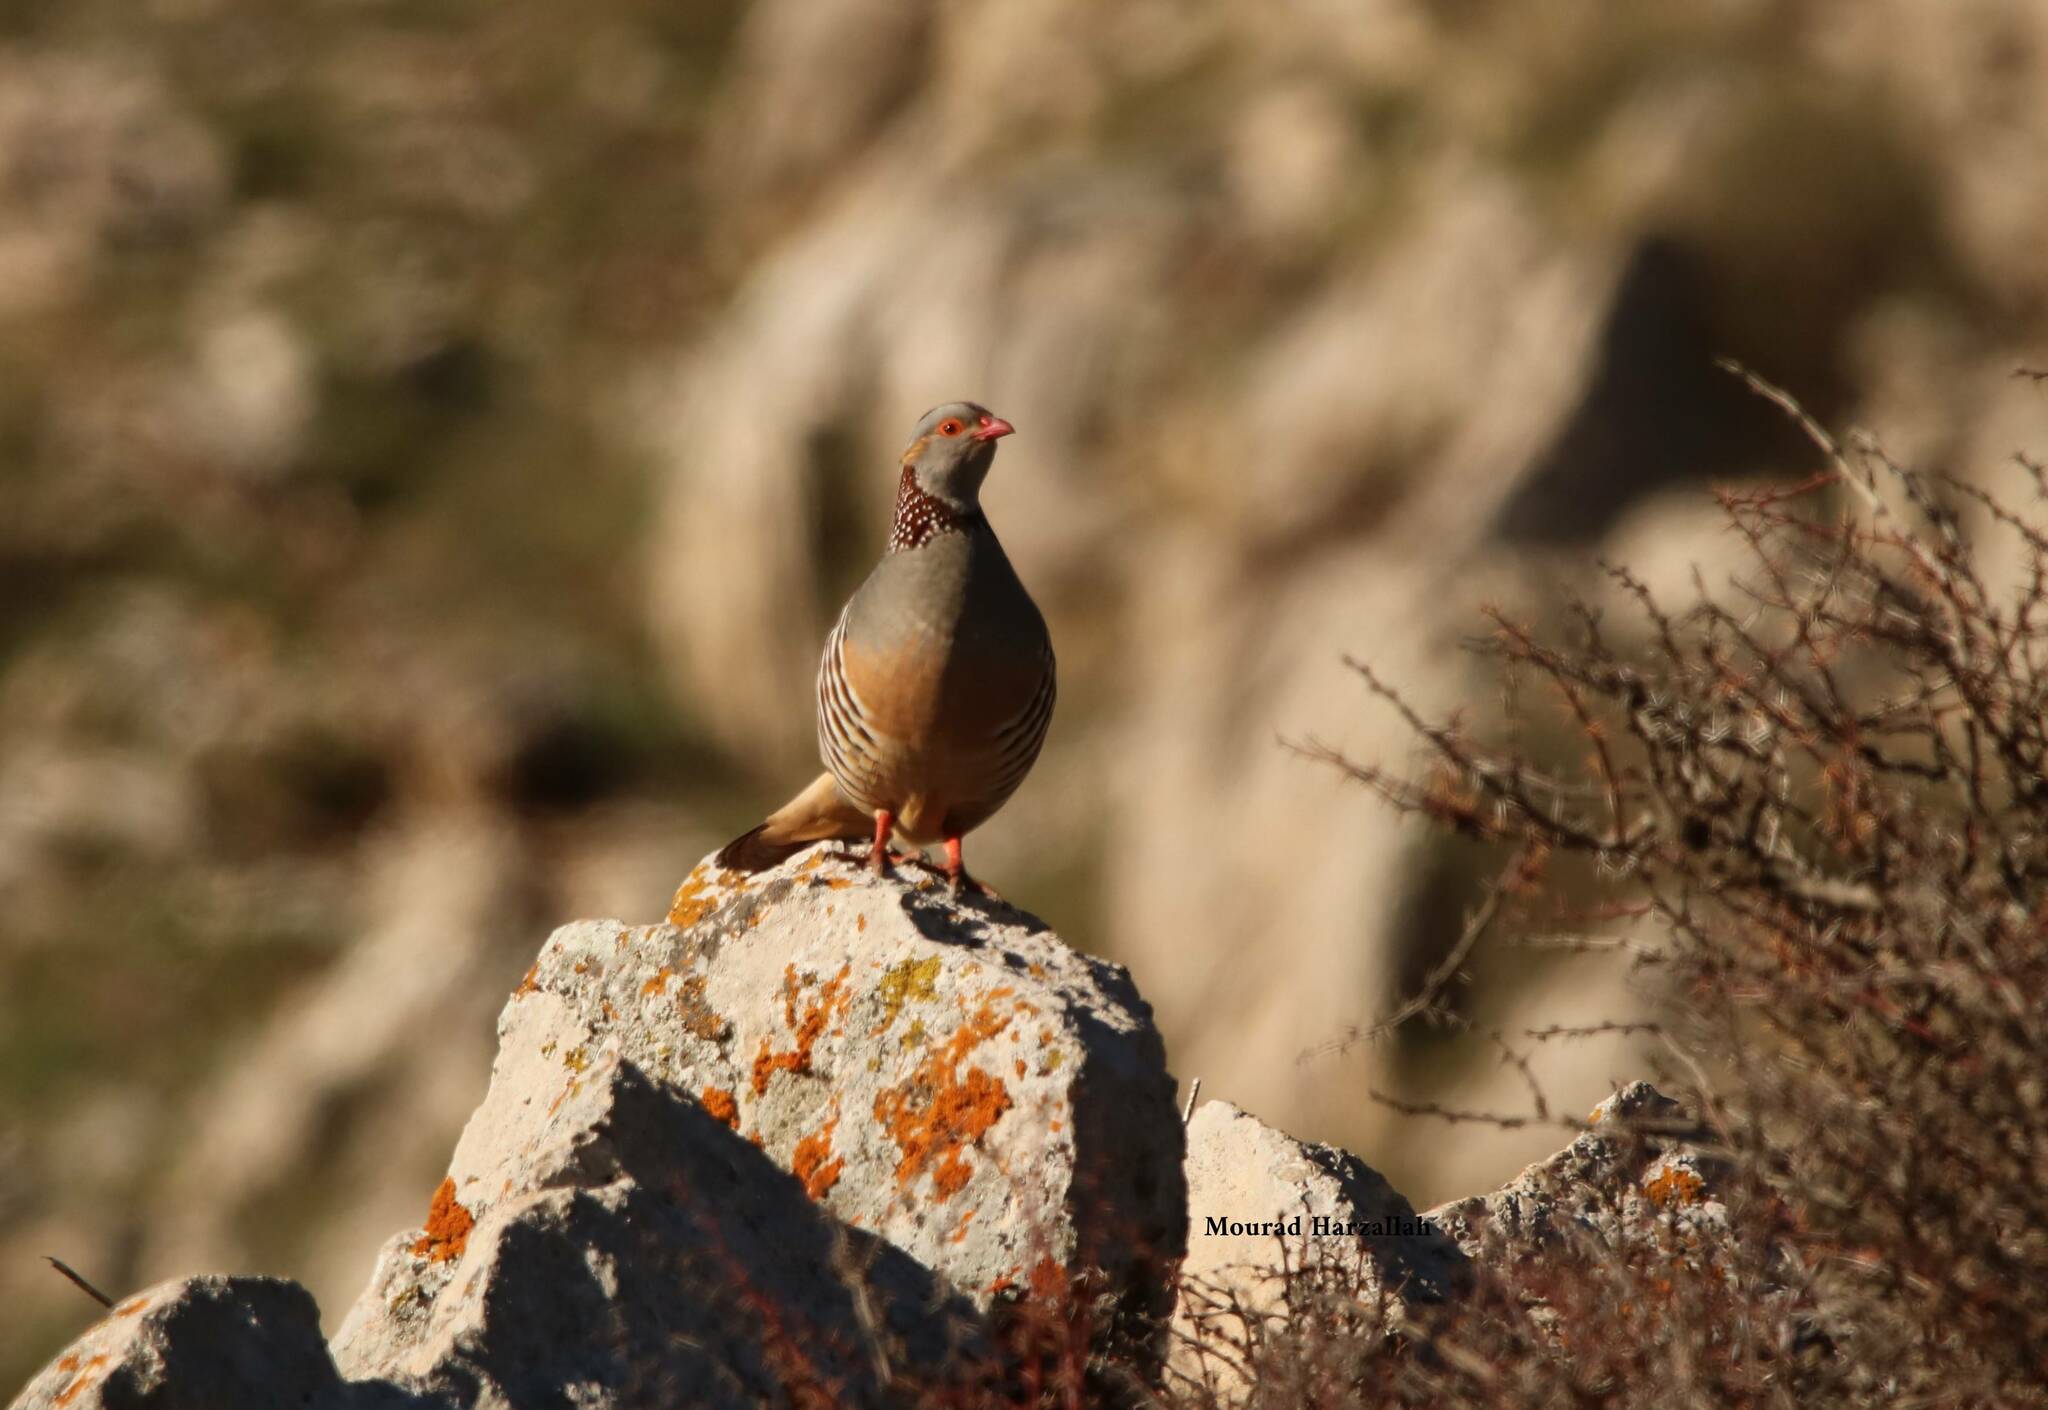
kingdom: Animalia
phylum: Chordata
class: Aves
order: Galliformes
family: Phasianidae
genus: Alectoris
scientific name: Alectoris barbara
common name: Barbary partridge
